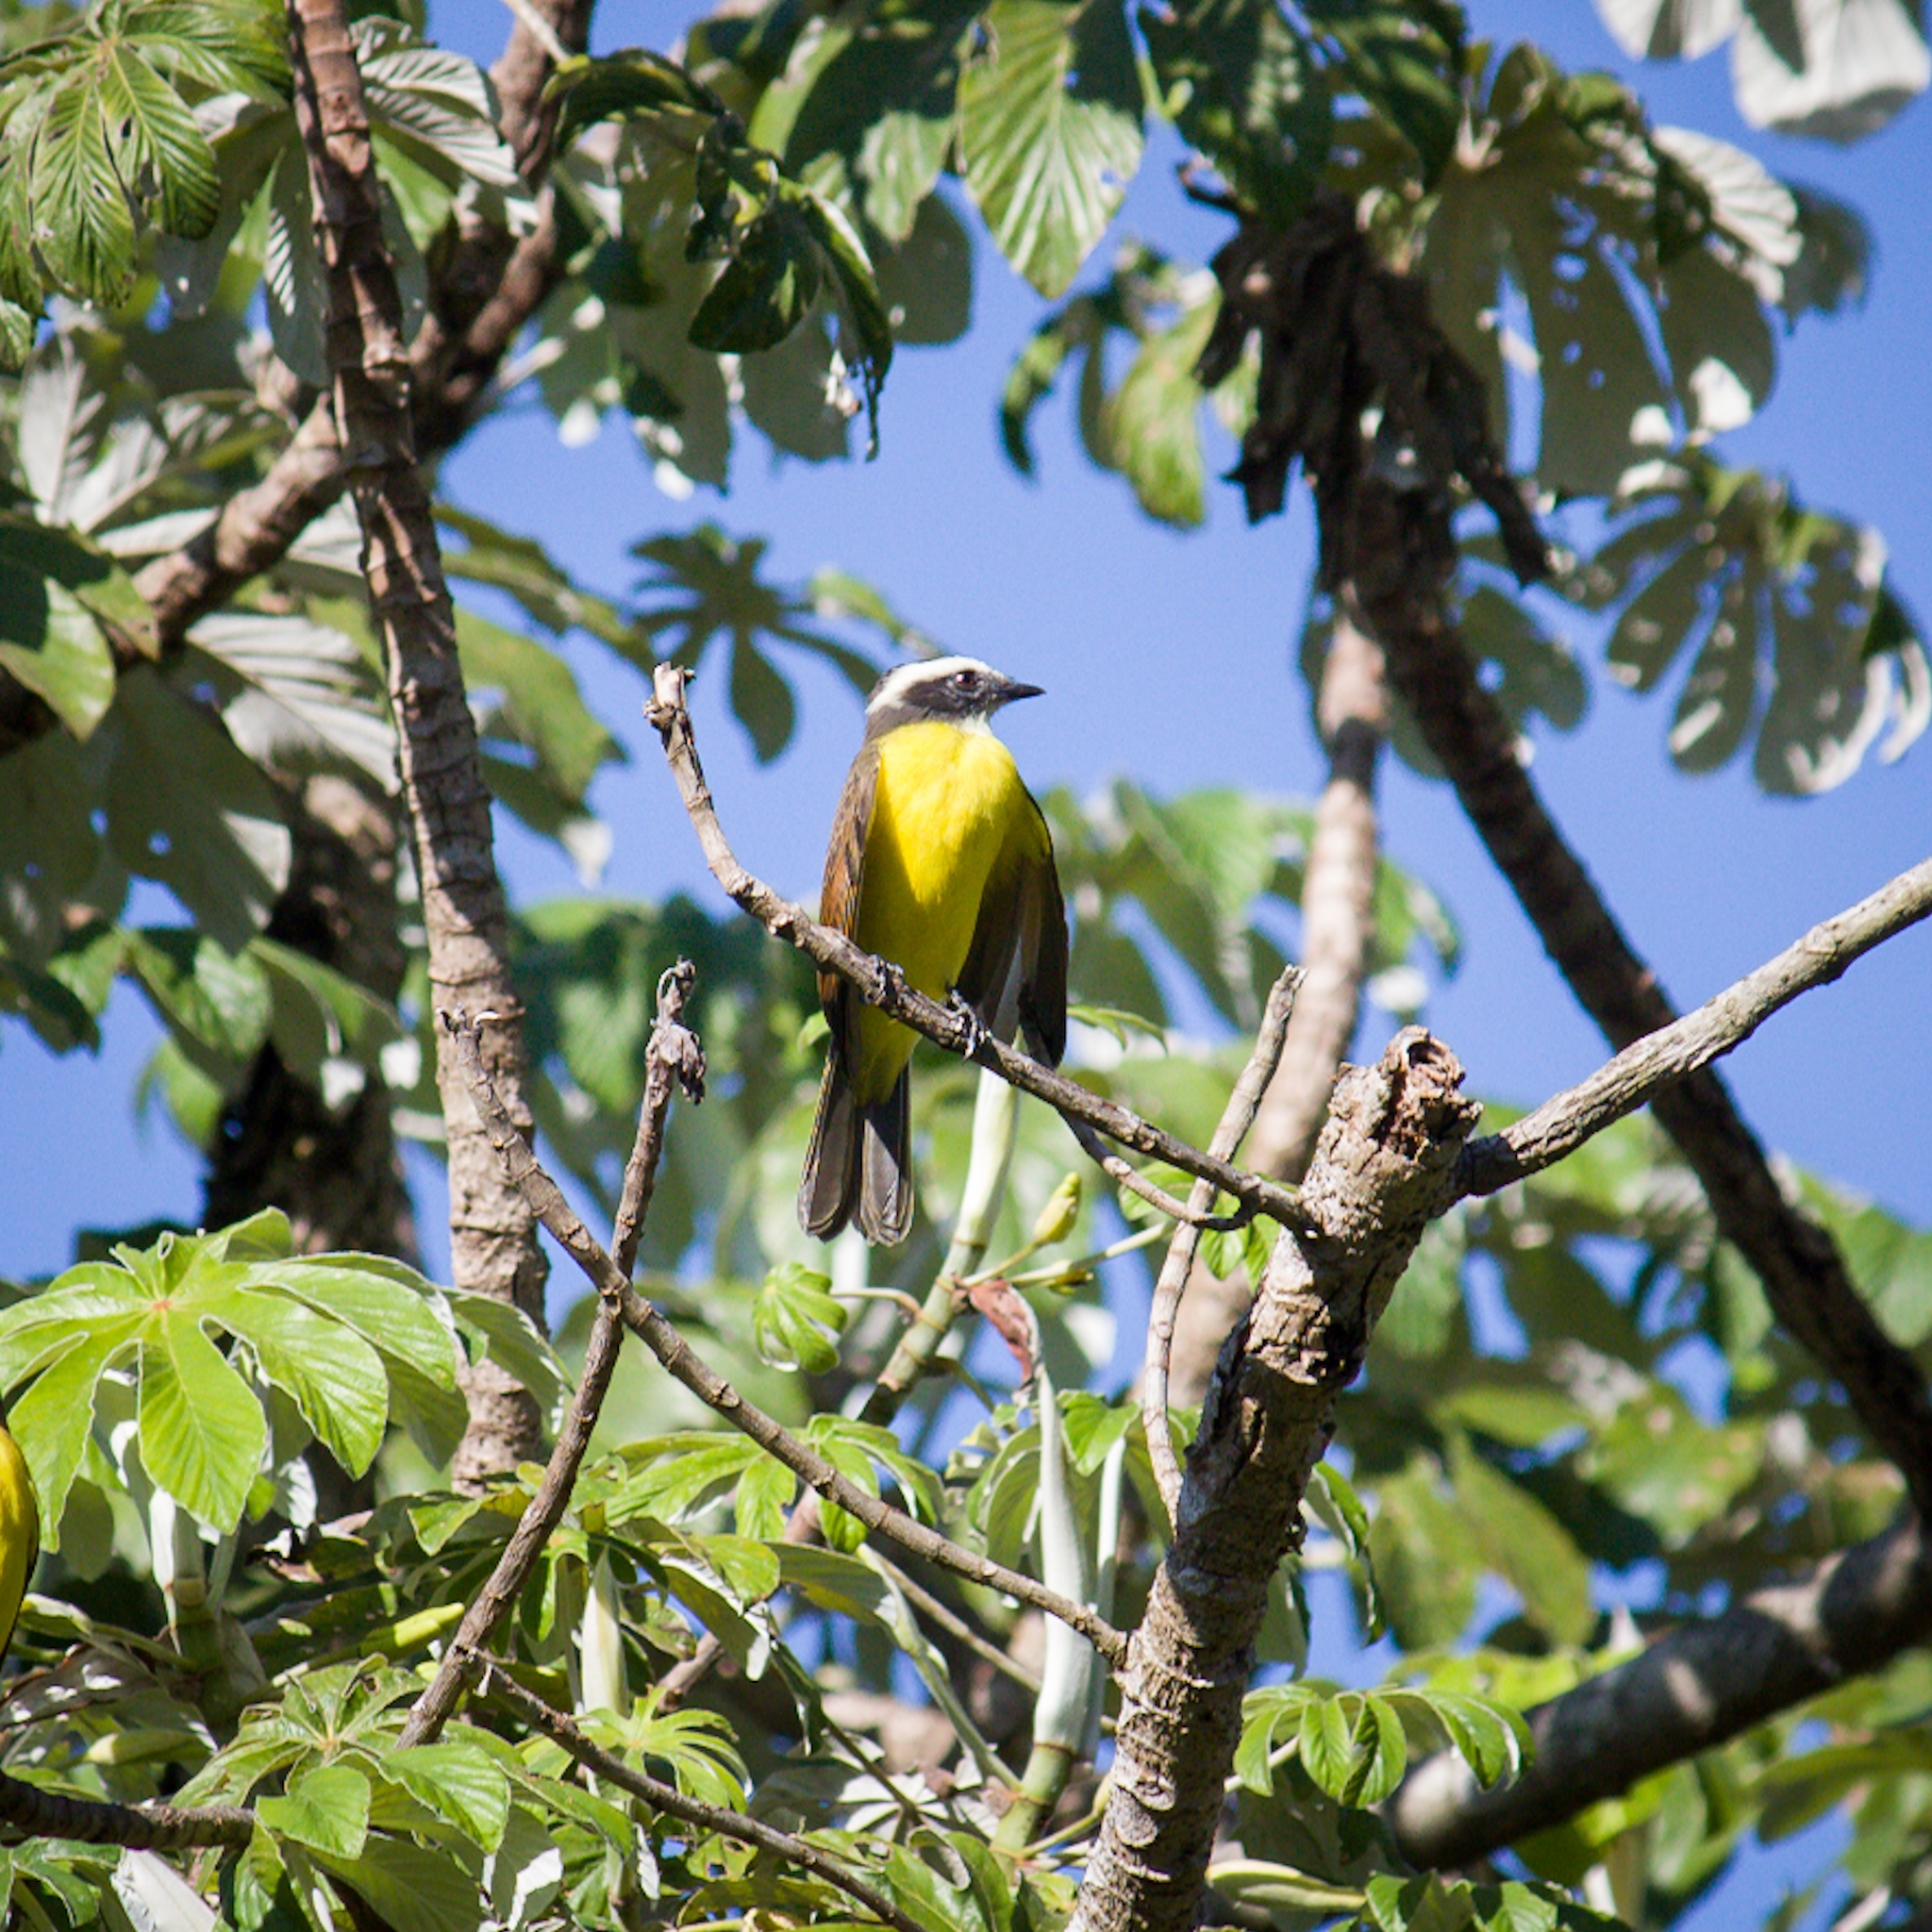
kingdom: Animalia
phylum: Chordata
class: Aves
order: Passeriformes
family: Tyrannidae
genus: Myiozetetes
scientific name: Myiozetetes similis
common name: Social flycatcher
